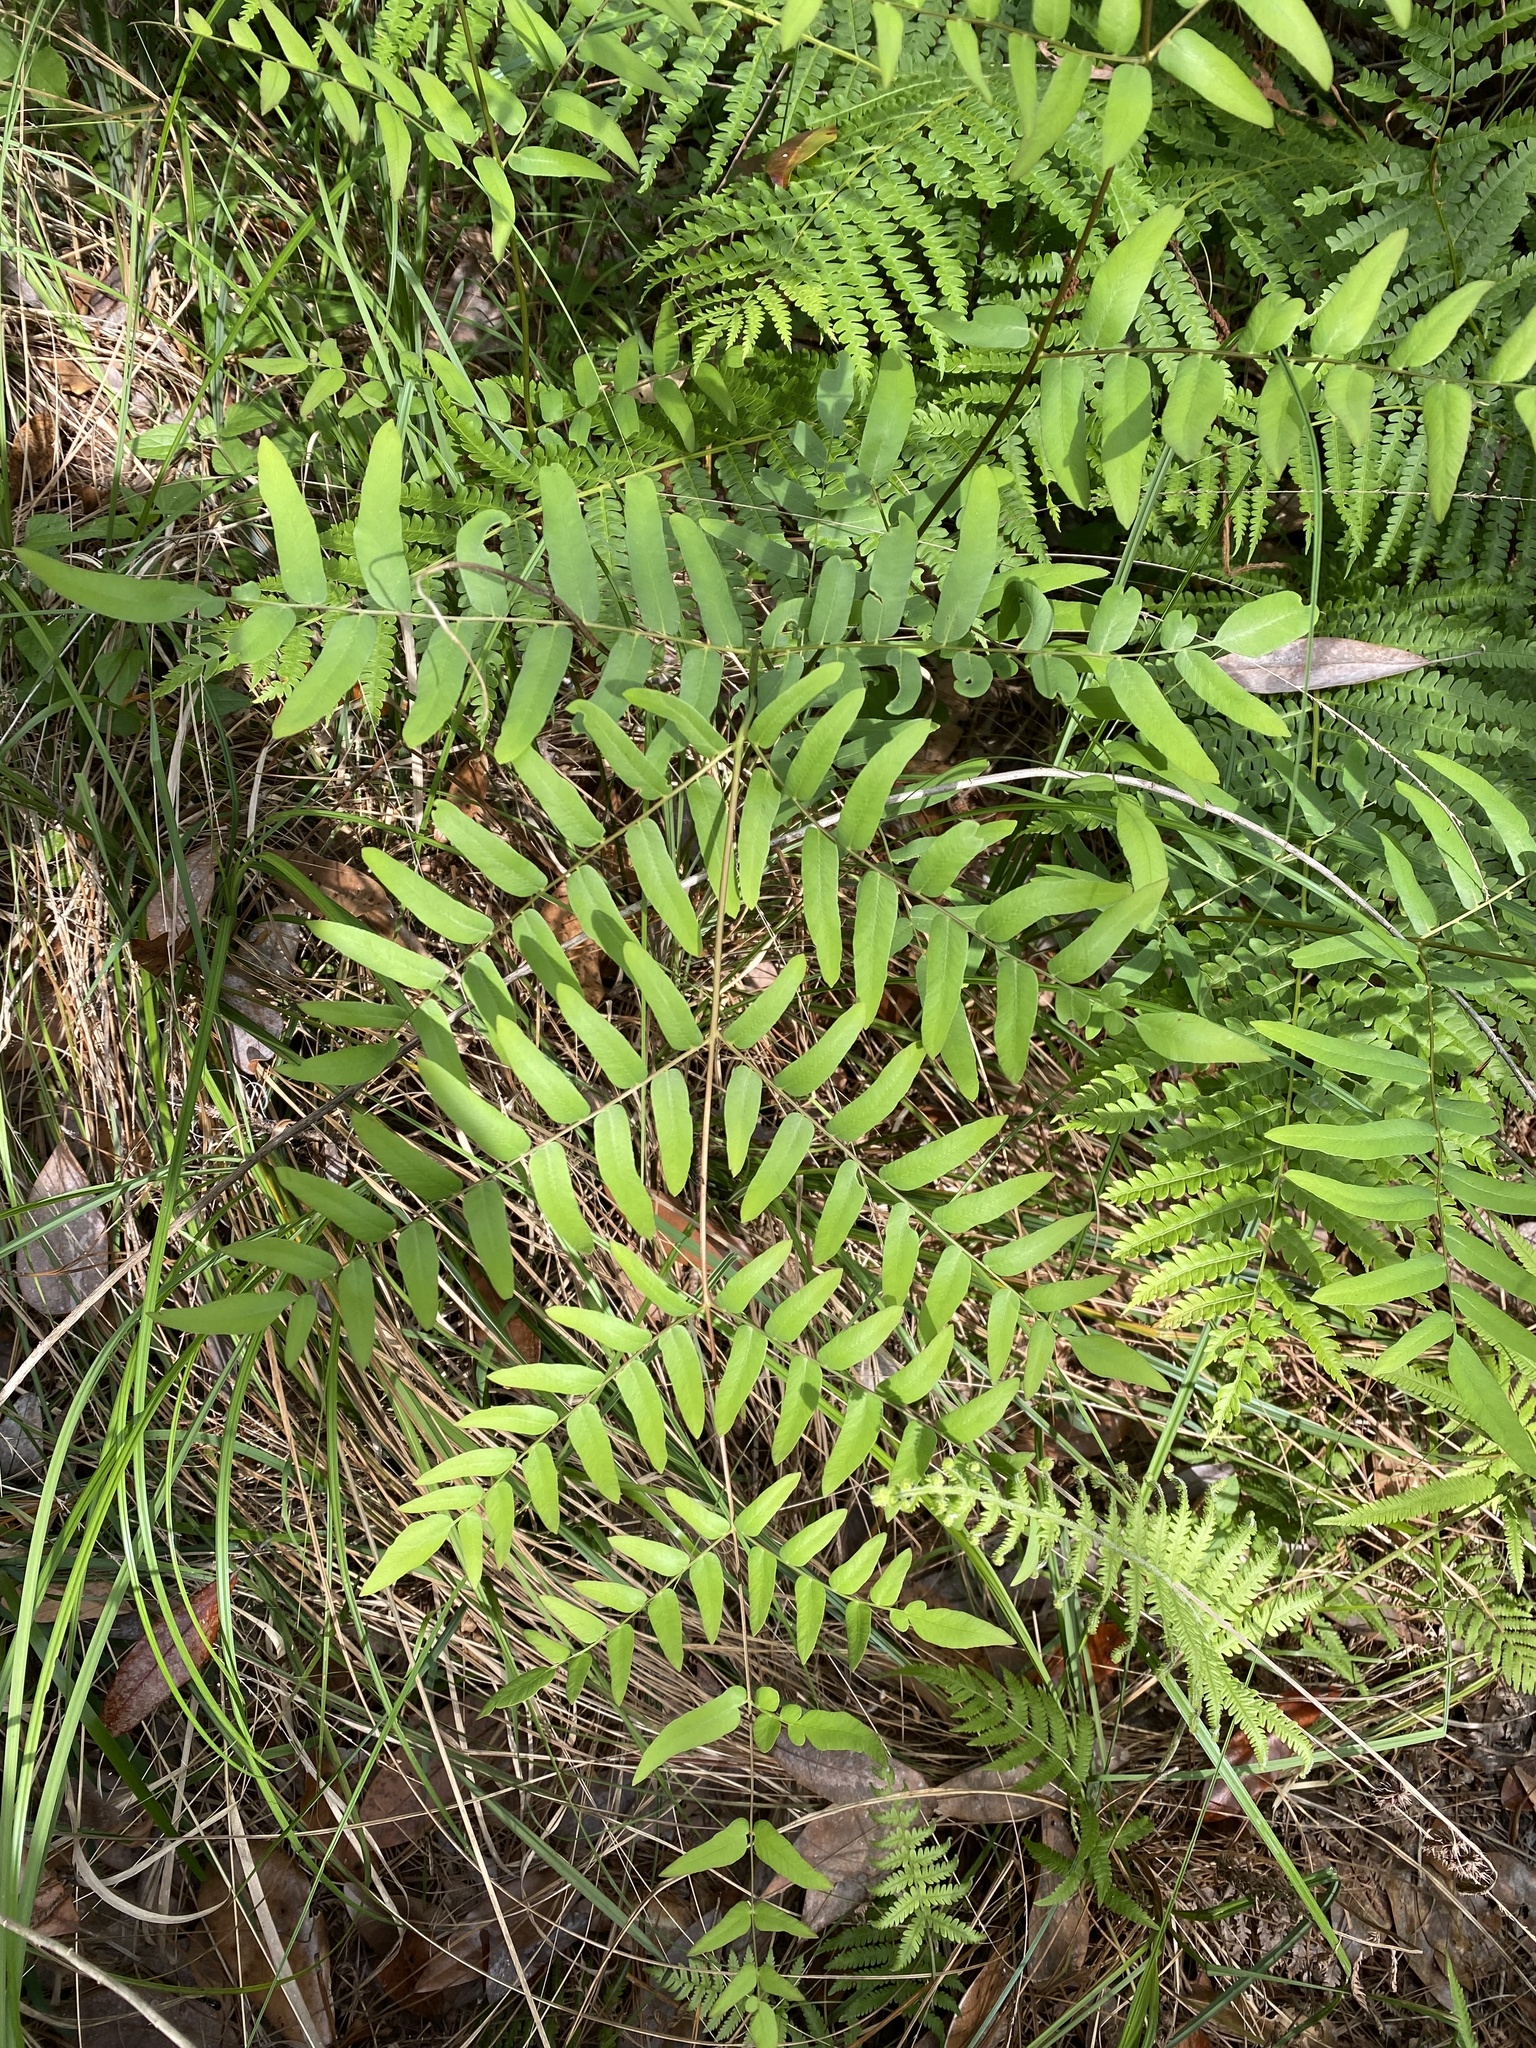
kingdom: Plantae
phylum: Tracheophyta
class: Polypodiopsida
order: Osmundales
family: Osmundaceae
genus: Osmunda
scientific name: Osmunda spectabilis
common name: American royal fern
